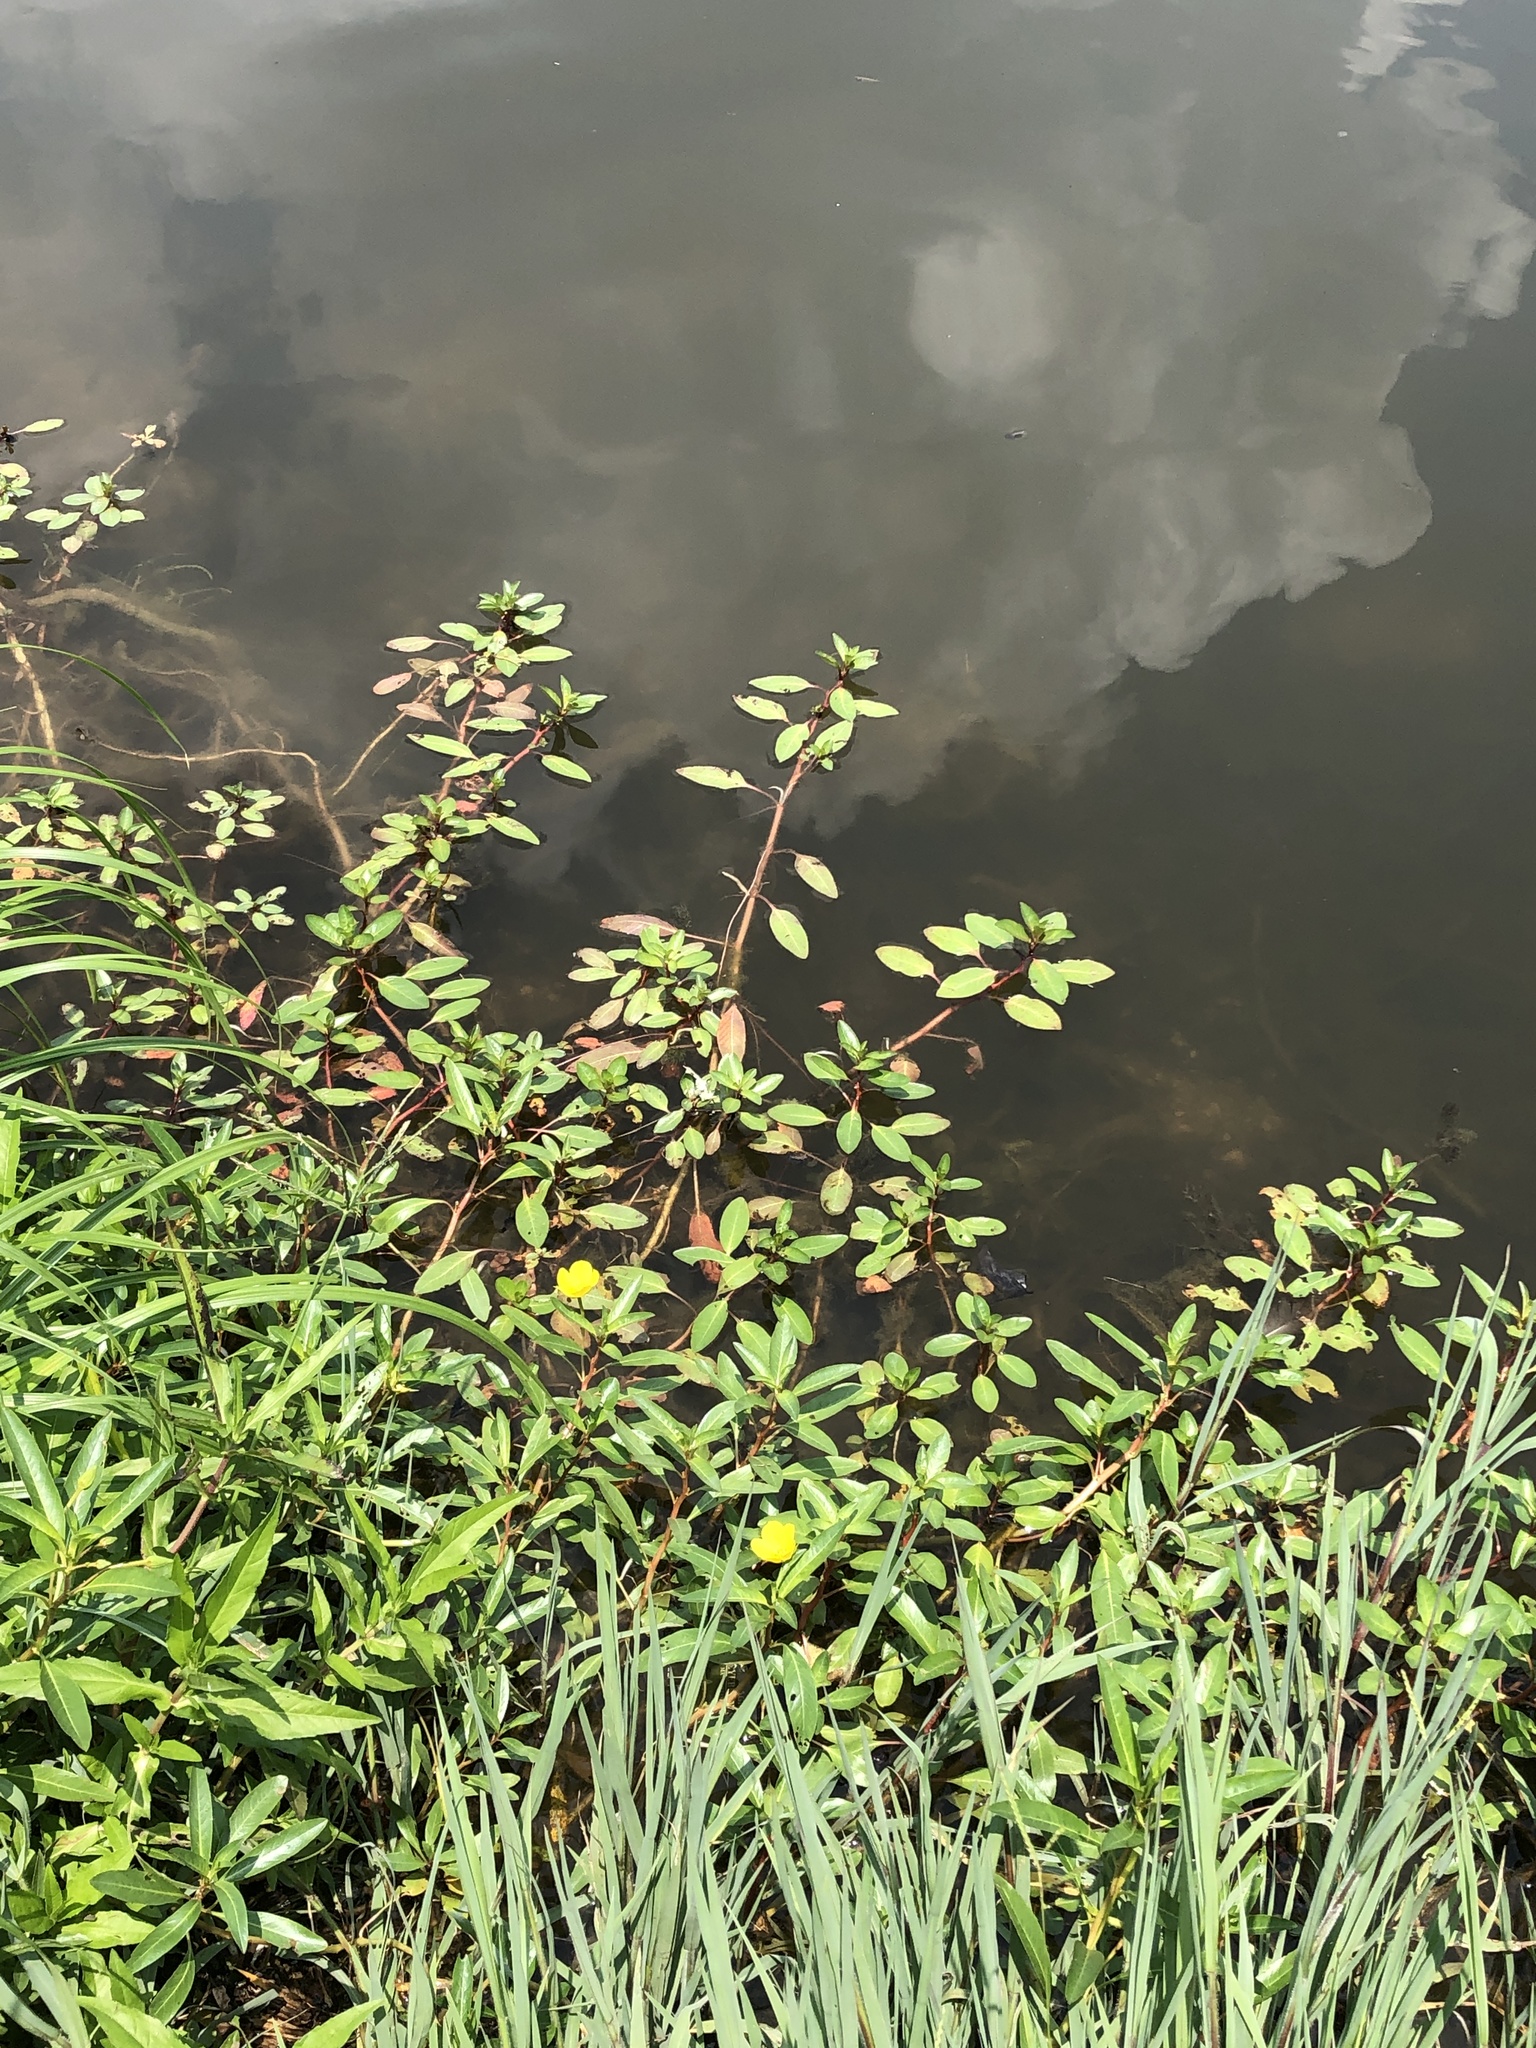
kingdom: Plantae
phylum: Tracheophyta
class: Magnoliopsida
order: Myrtales
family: Onagraceae
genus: Ludwigia
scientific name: Ludwigia peploides
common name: Floating primrose-willow
